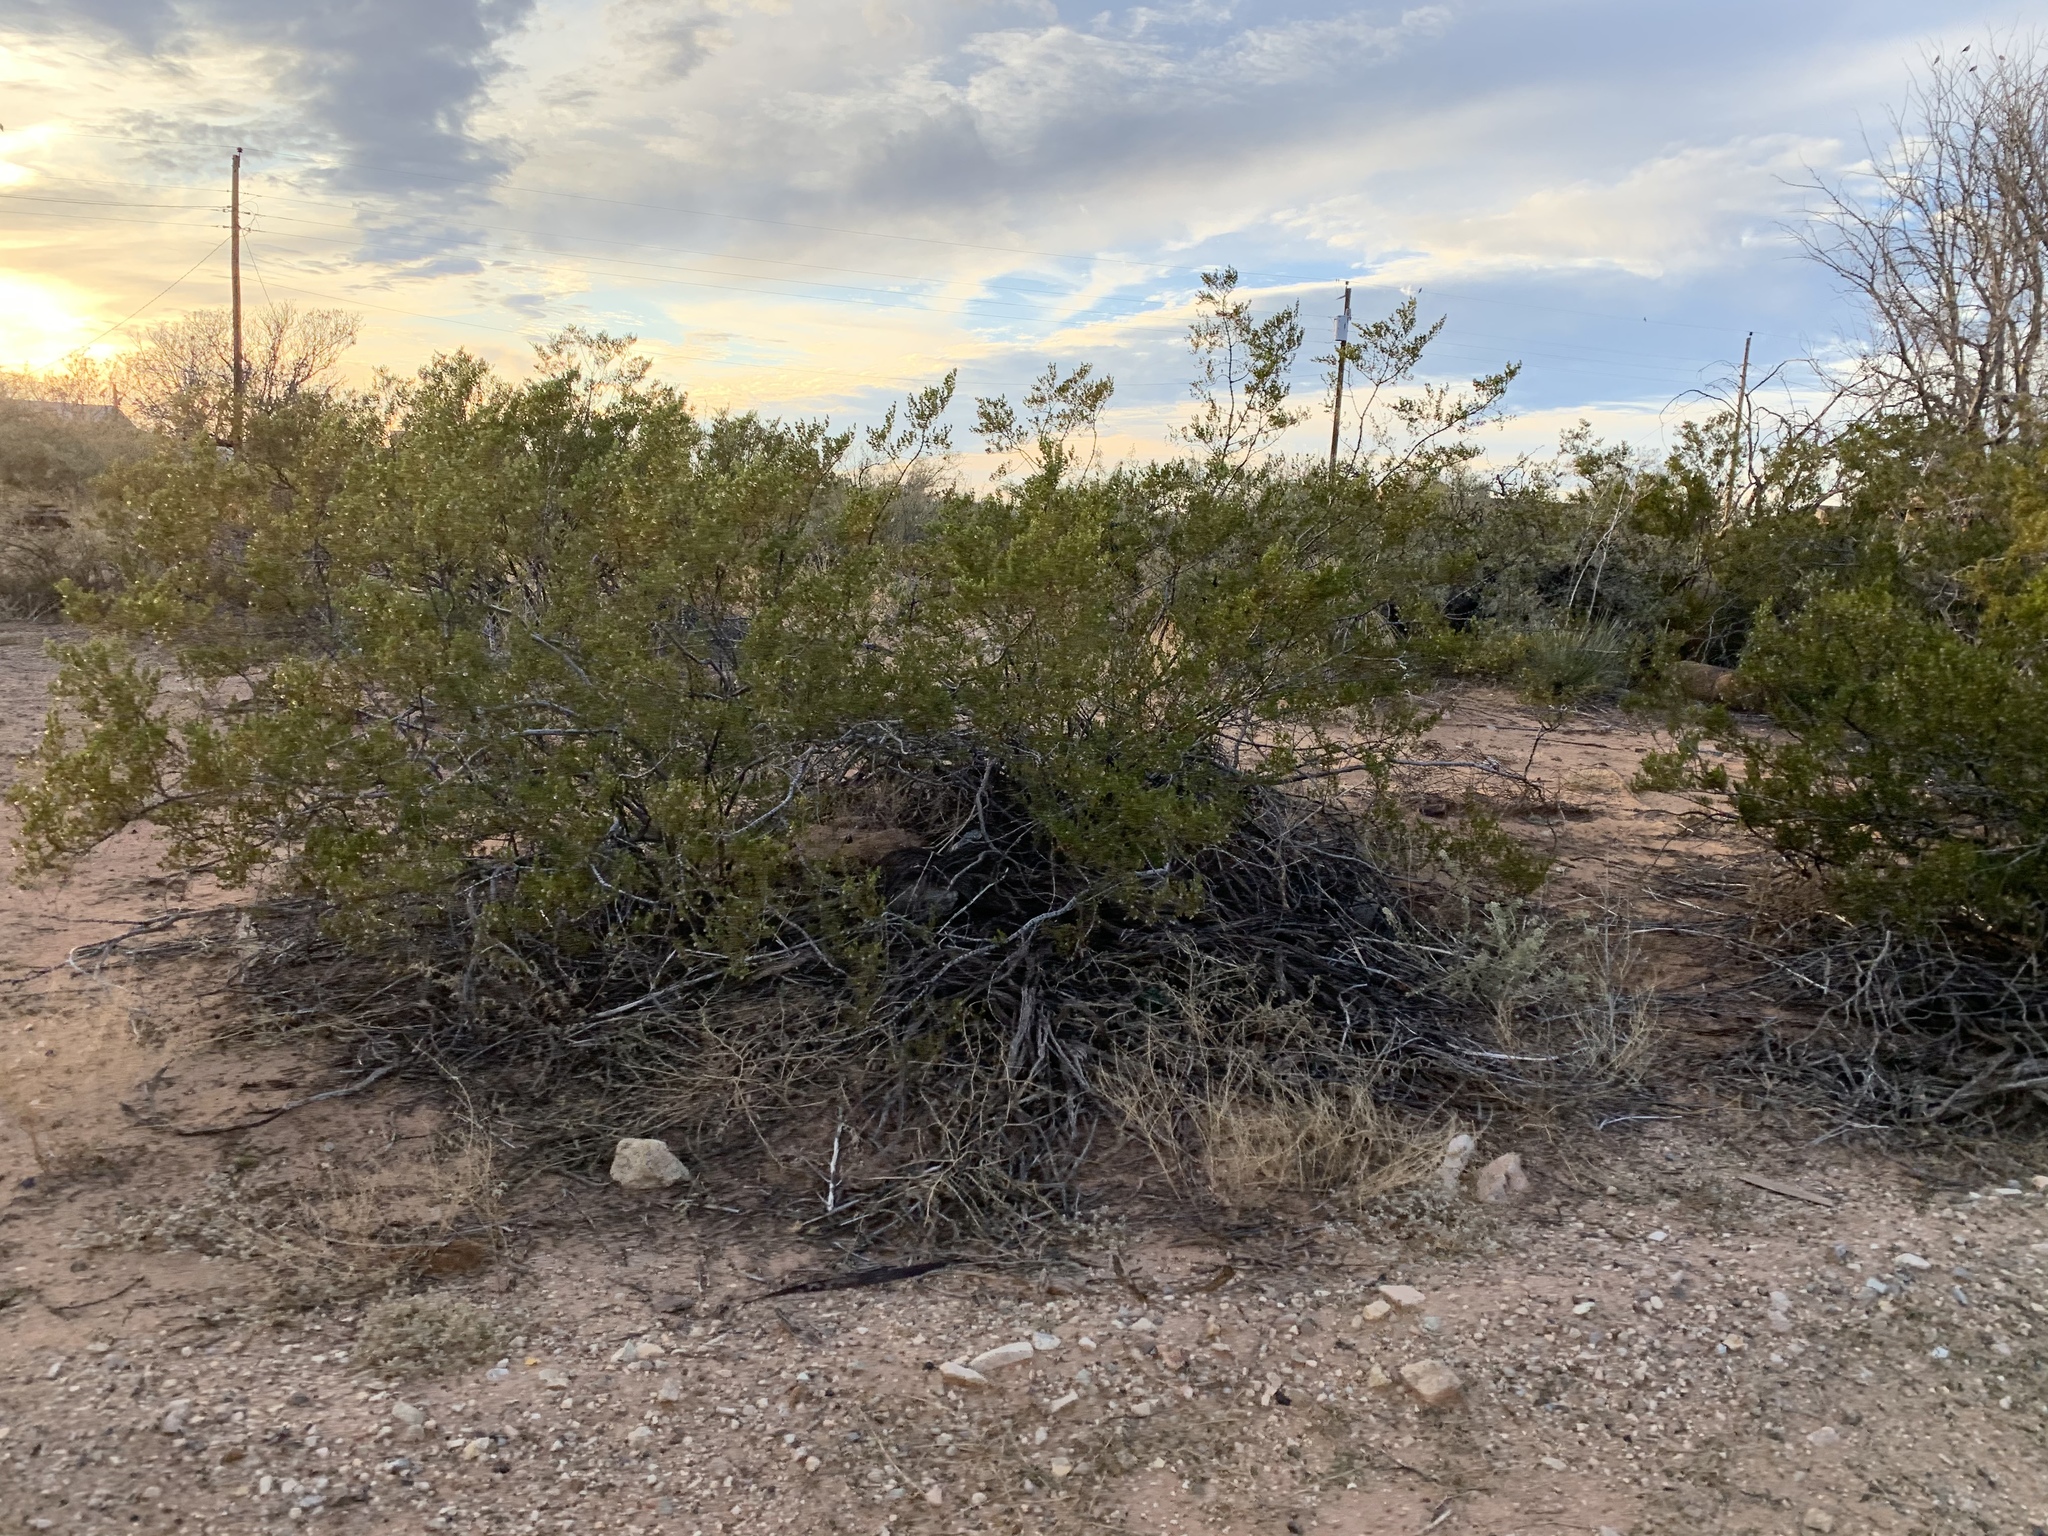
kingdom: Plantae
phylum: Tracheophyta
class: Magnoliopsida
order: Zygophyllales
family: Zygophyllaceae
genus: Larrea
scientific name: Larrea tridentata
